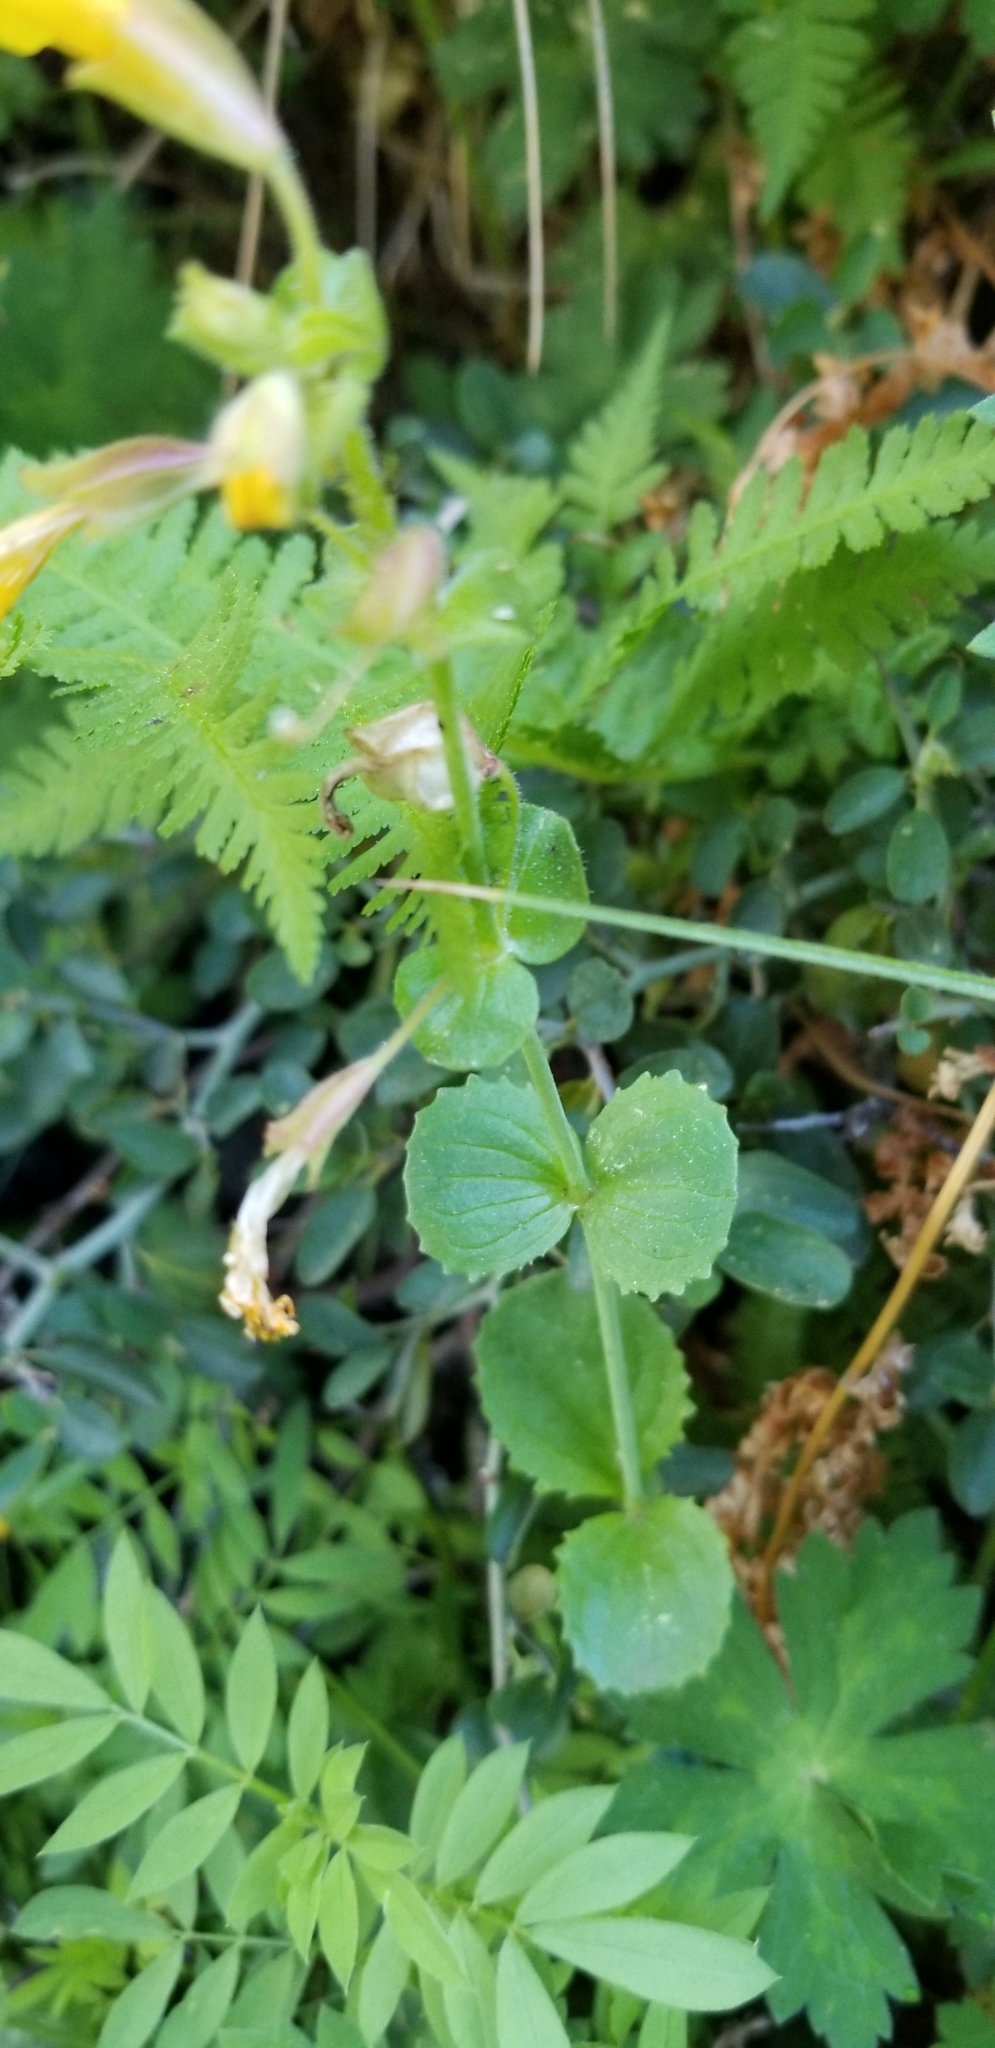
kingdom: Plantae
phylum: Tracheophyta
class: Magnoliopsida
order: Lamiales
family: Phrymaceae
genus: Erythranthe
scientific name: Erythranthe guttata
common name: Monkeyflower
